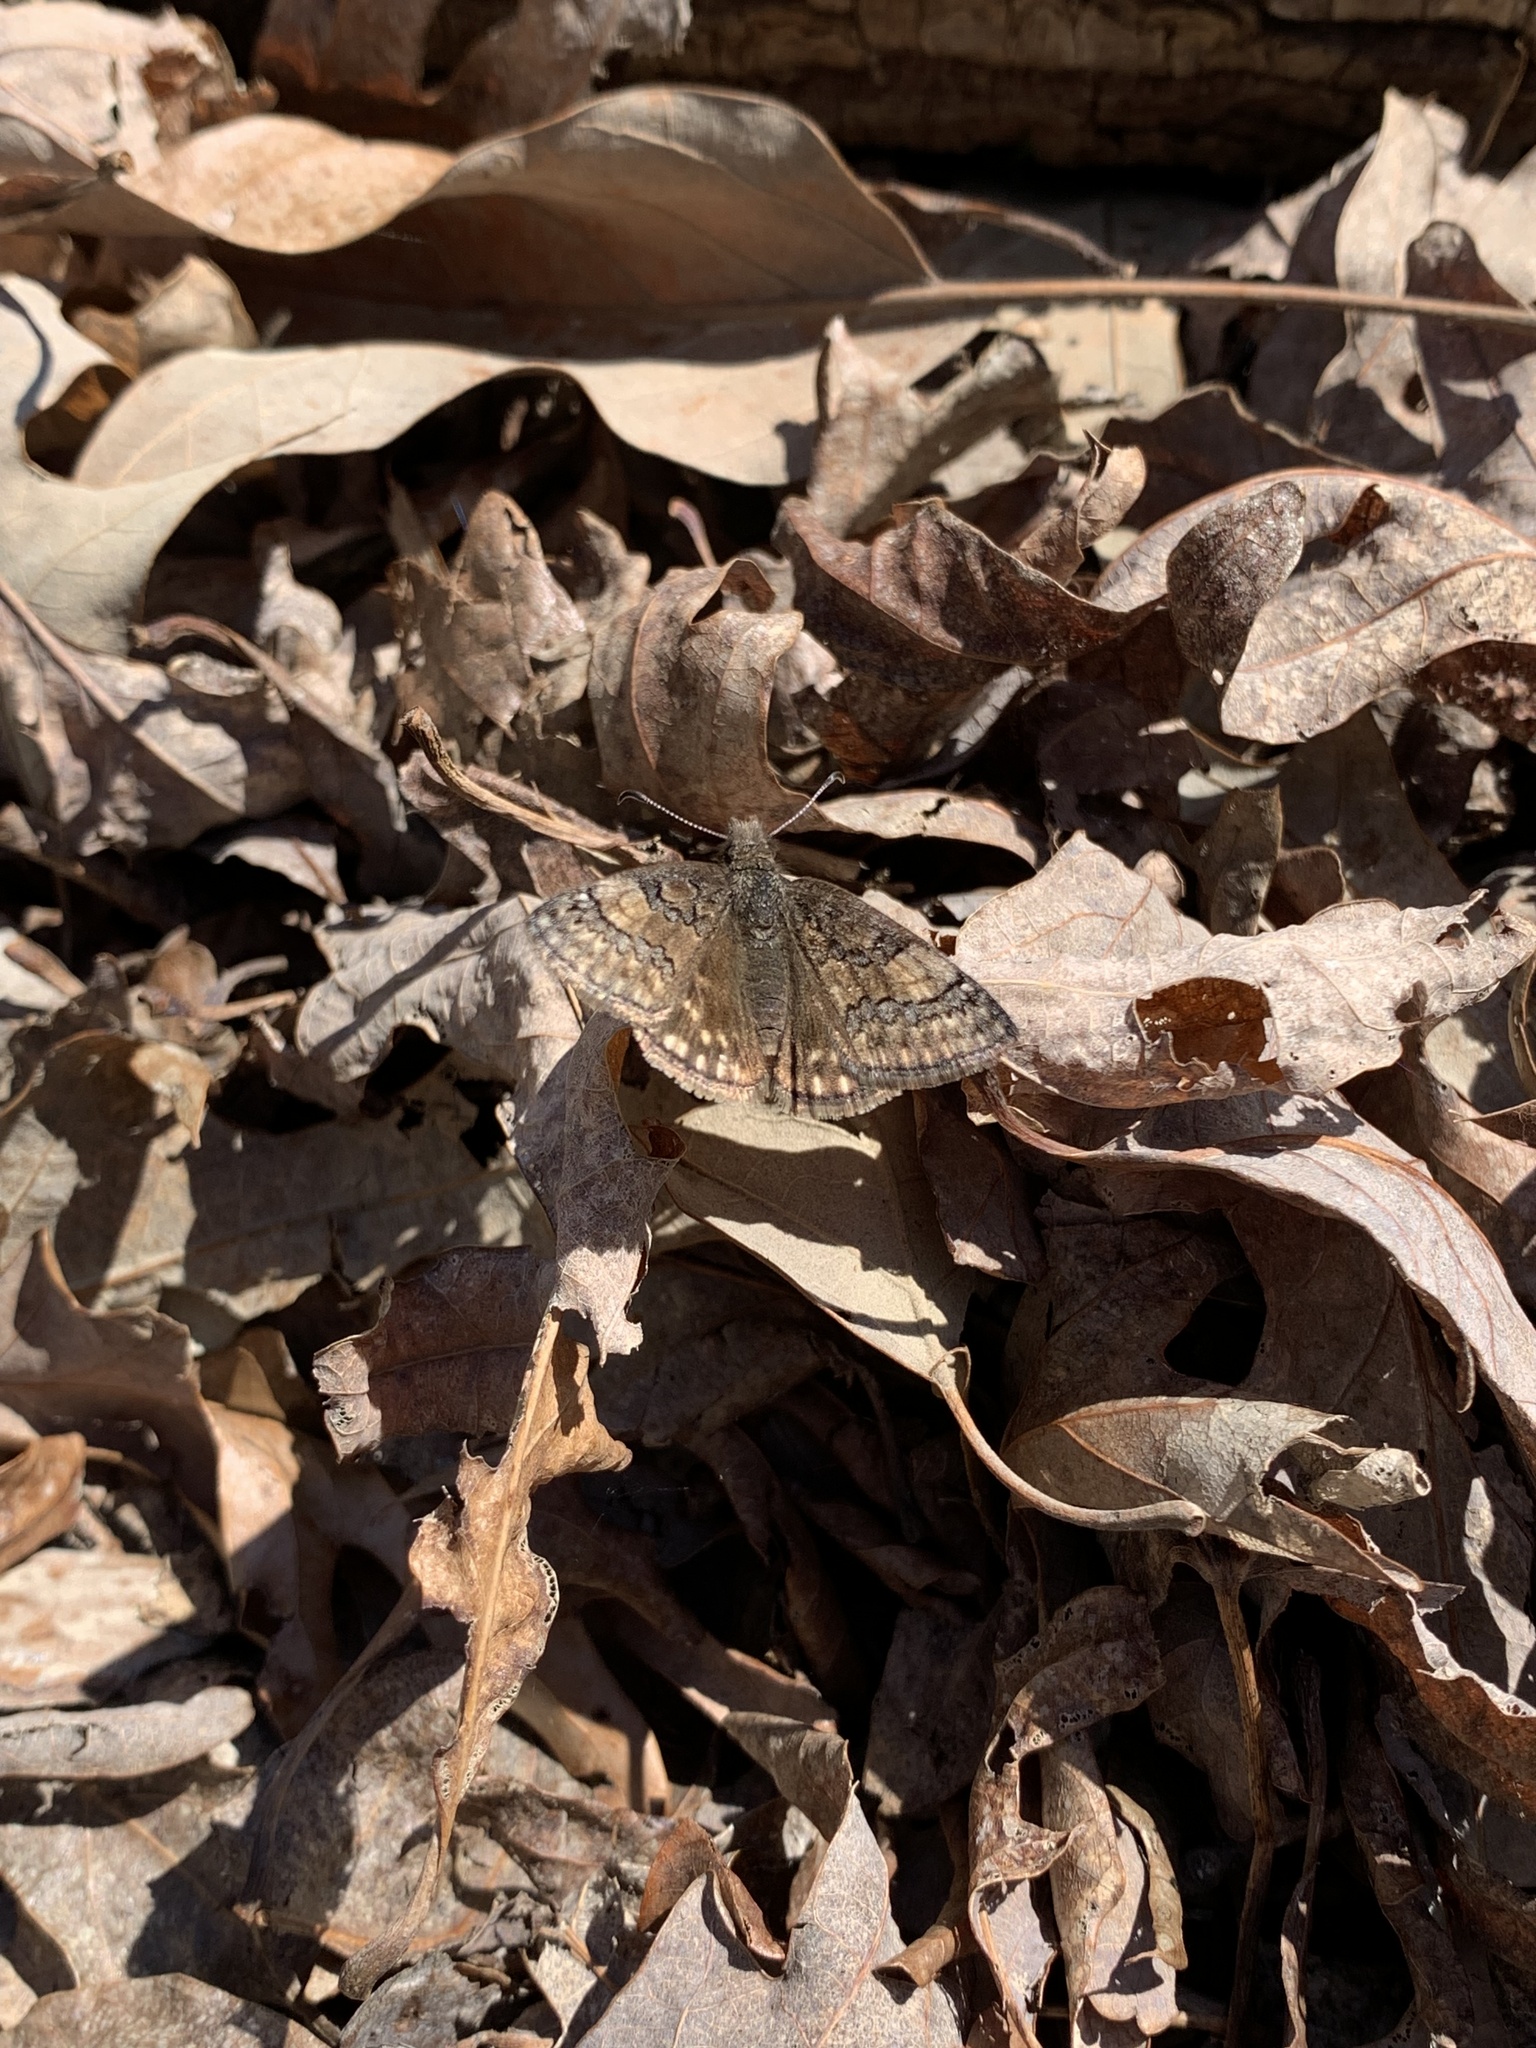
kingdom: Animalia
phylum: Arthropoda
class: Insecta
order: Lepidoptera
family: Hesperiidae
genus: Erynnis
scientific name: Erynnis brizo
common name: Sleepy duskywing
